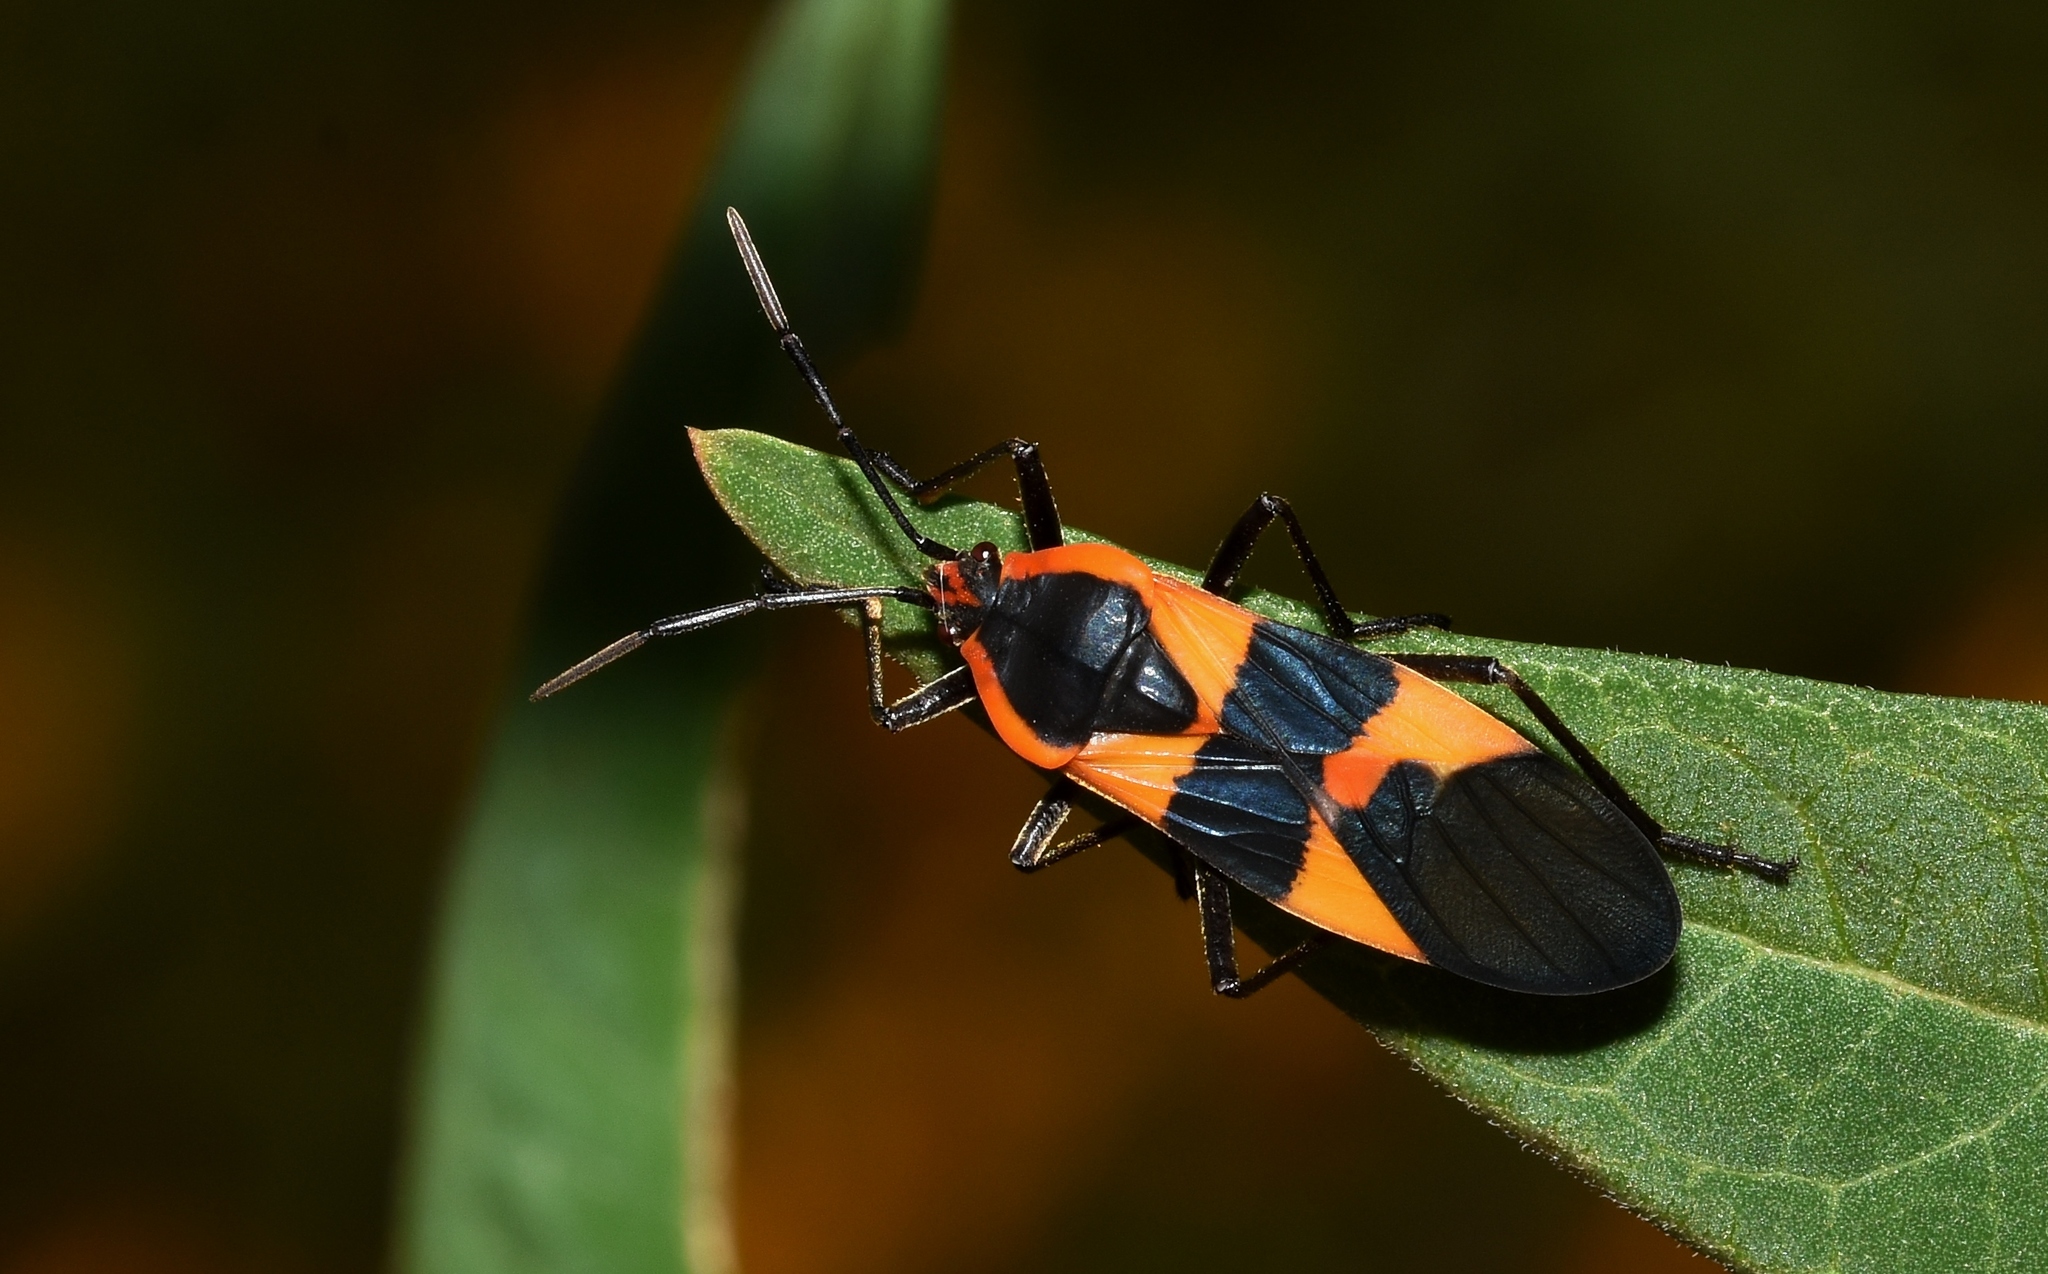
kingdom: Animalia
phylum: Arthropoda
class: Insecta
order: Hemiptera
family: Lygaeidae
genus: Oncopeltus
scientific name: Oncopeltus fasciatus
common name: Large milkweed bug
